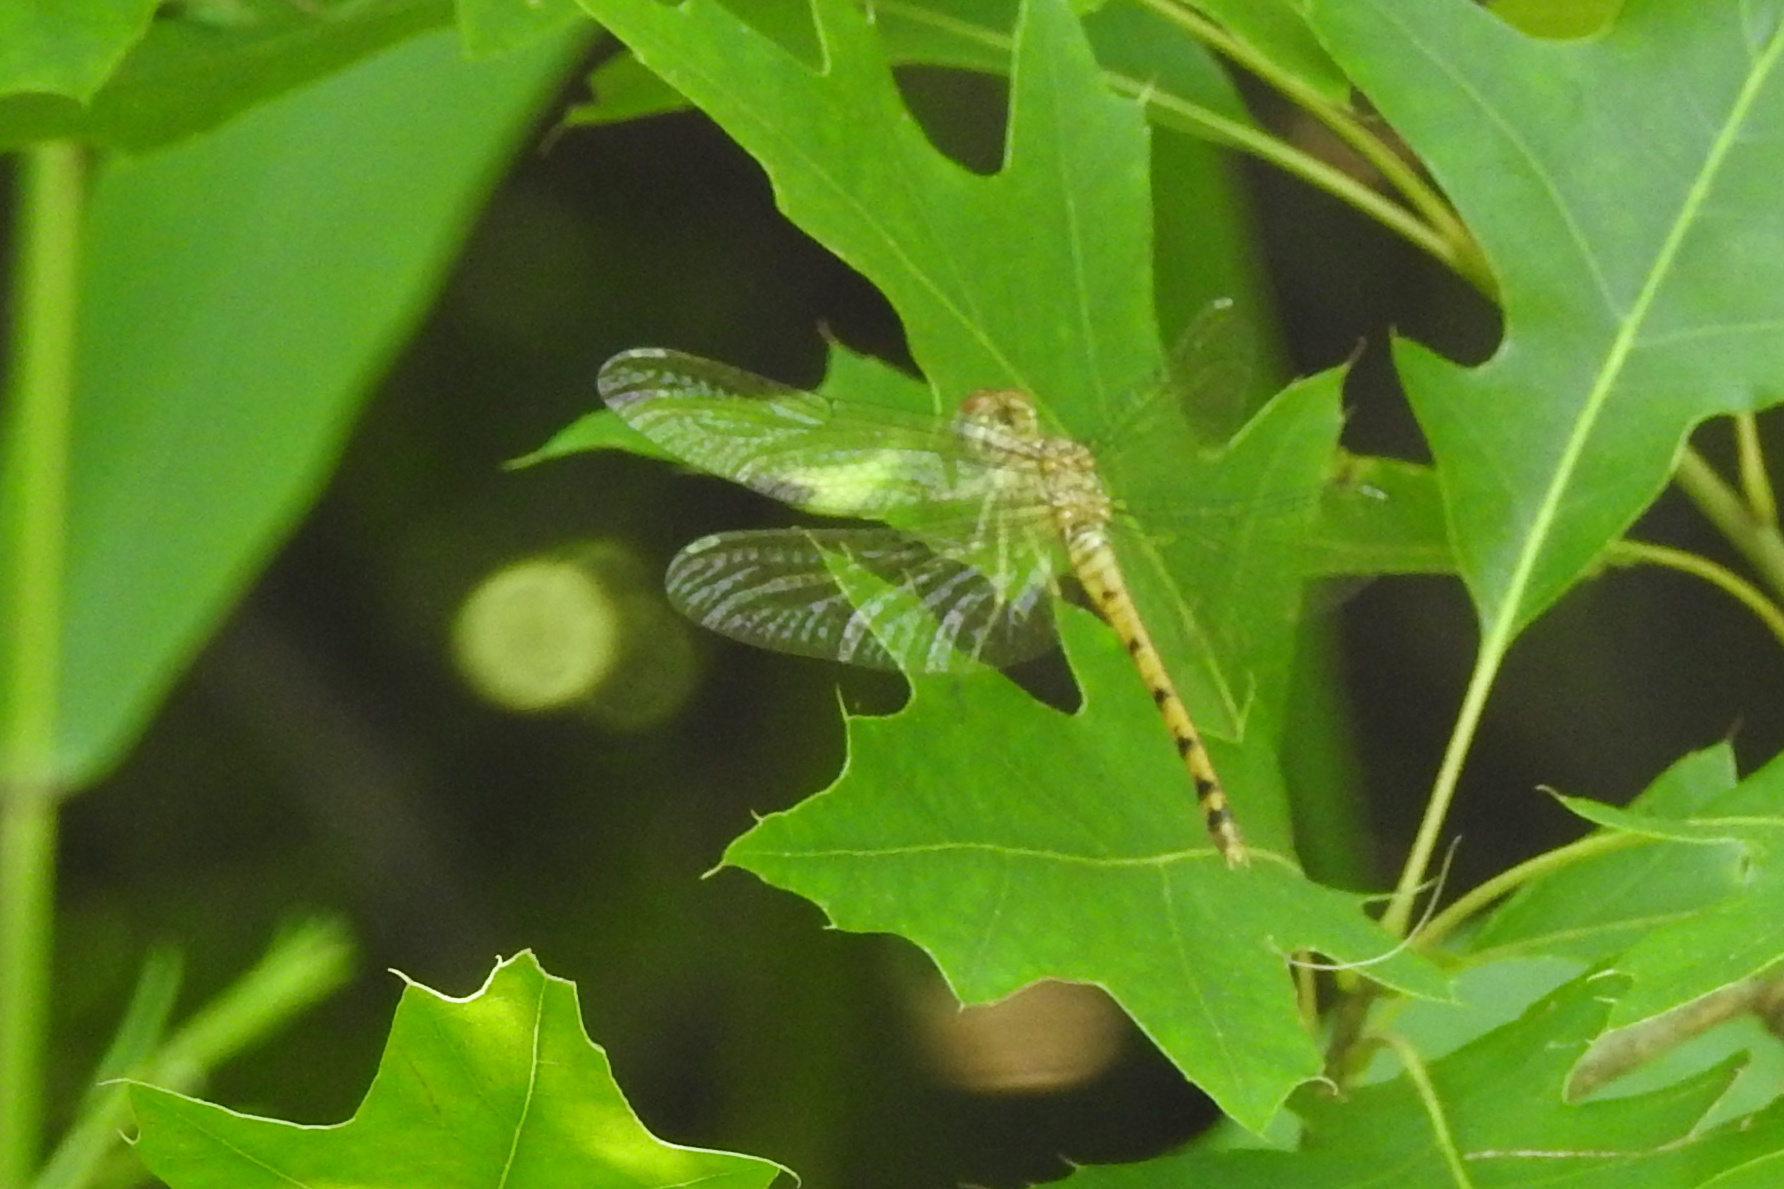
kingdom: Animalia
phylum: Arthropoda
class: Insecta
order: Odonata
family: Libellulidae
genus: Sympetrum
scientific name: Sympetrum ambiguum
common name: Blue-faced meadowhawk
